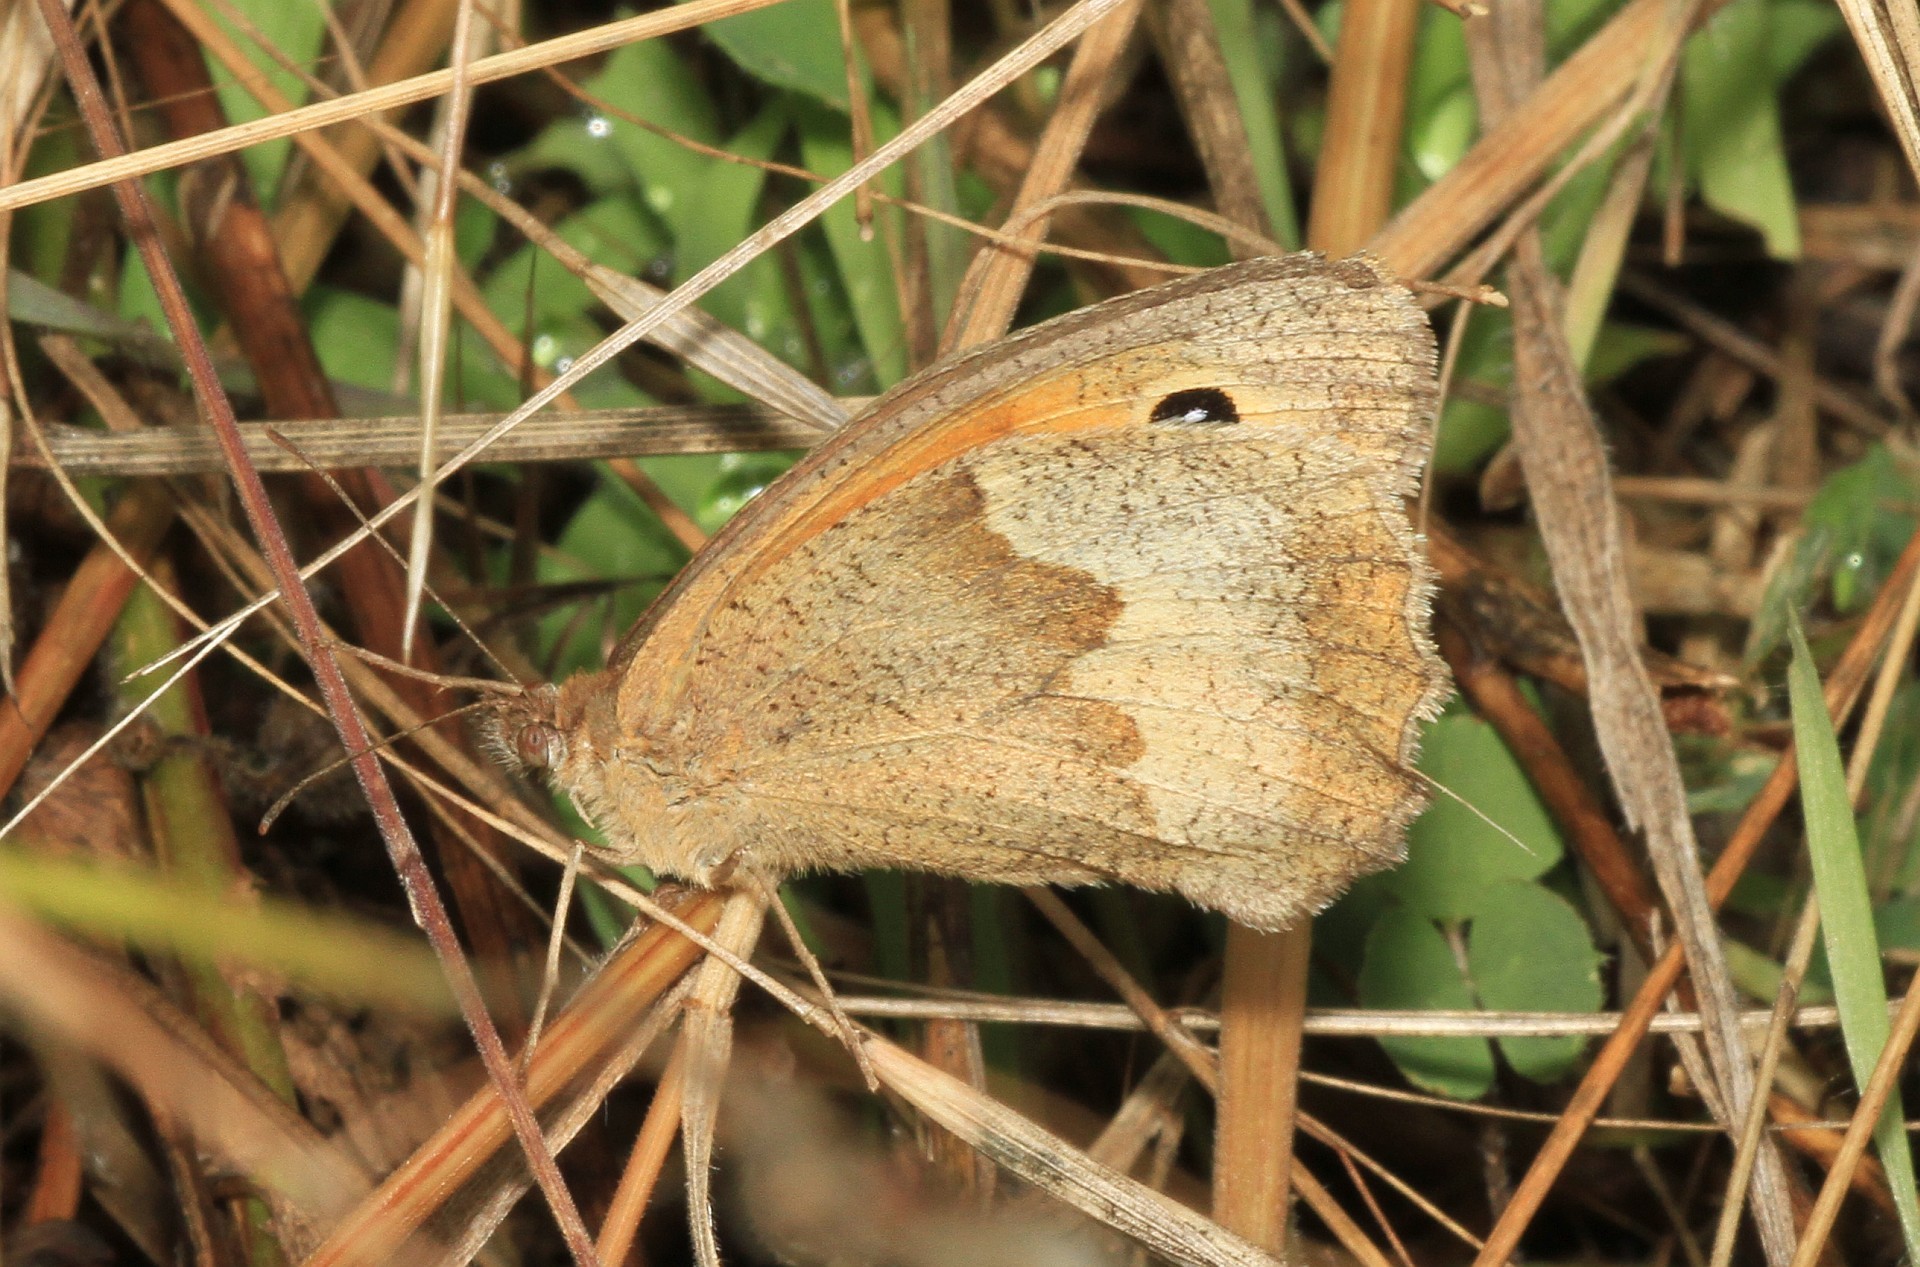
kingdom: Animalia
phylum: Arthropoda
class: Insecta
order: Lepidoptera
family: Nymphalidae
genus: Maniola
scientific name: Maniola jurtina
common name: Meadow brown
